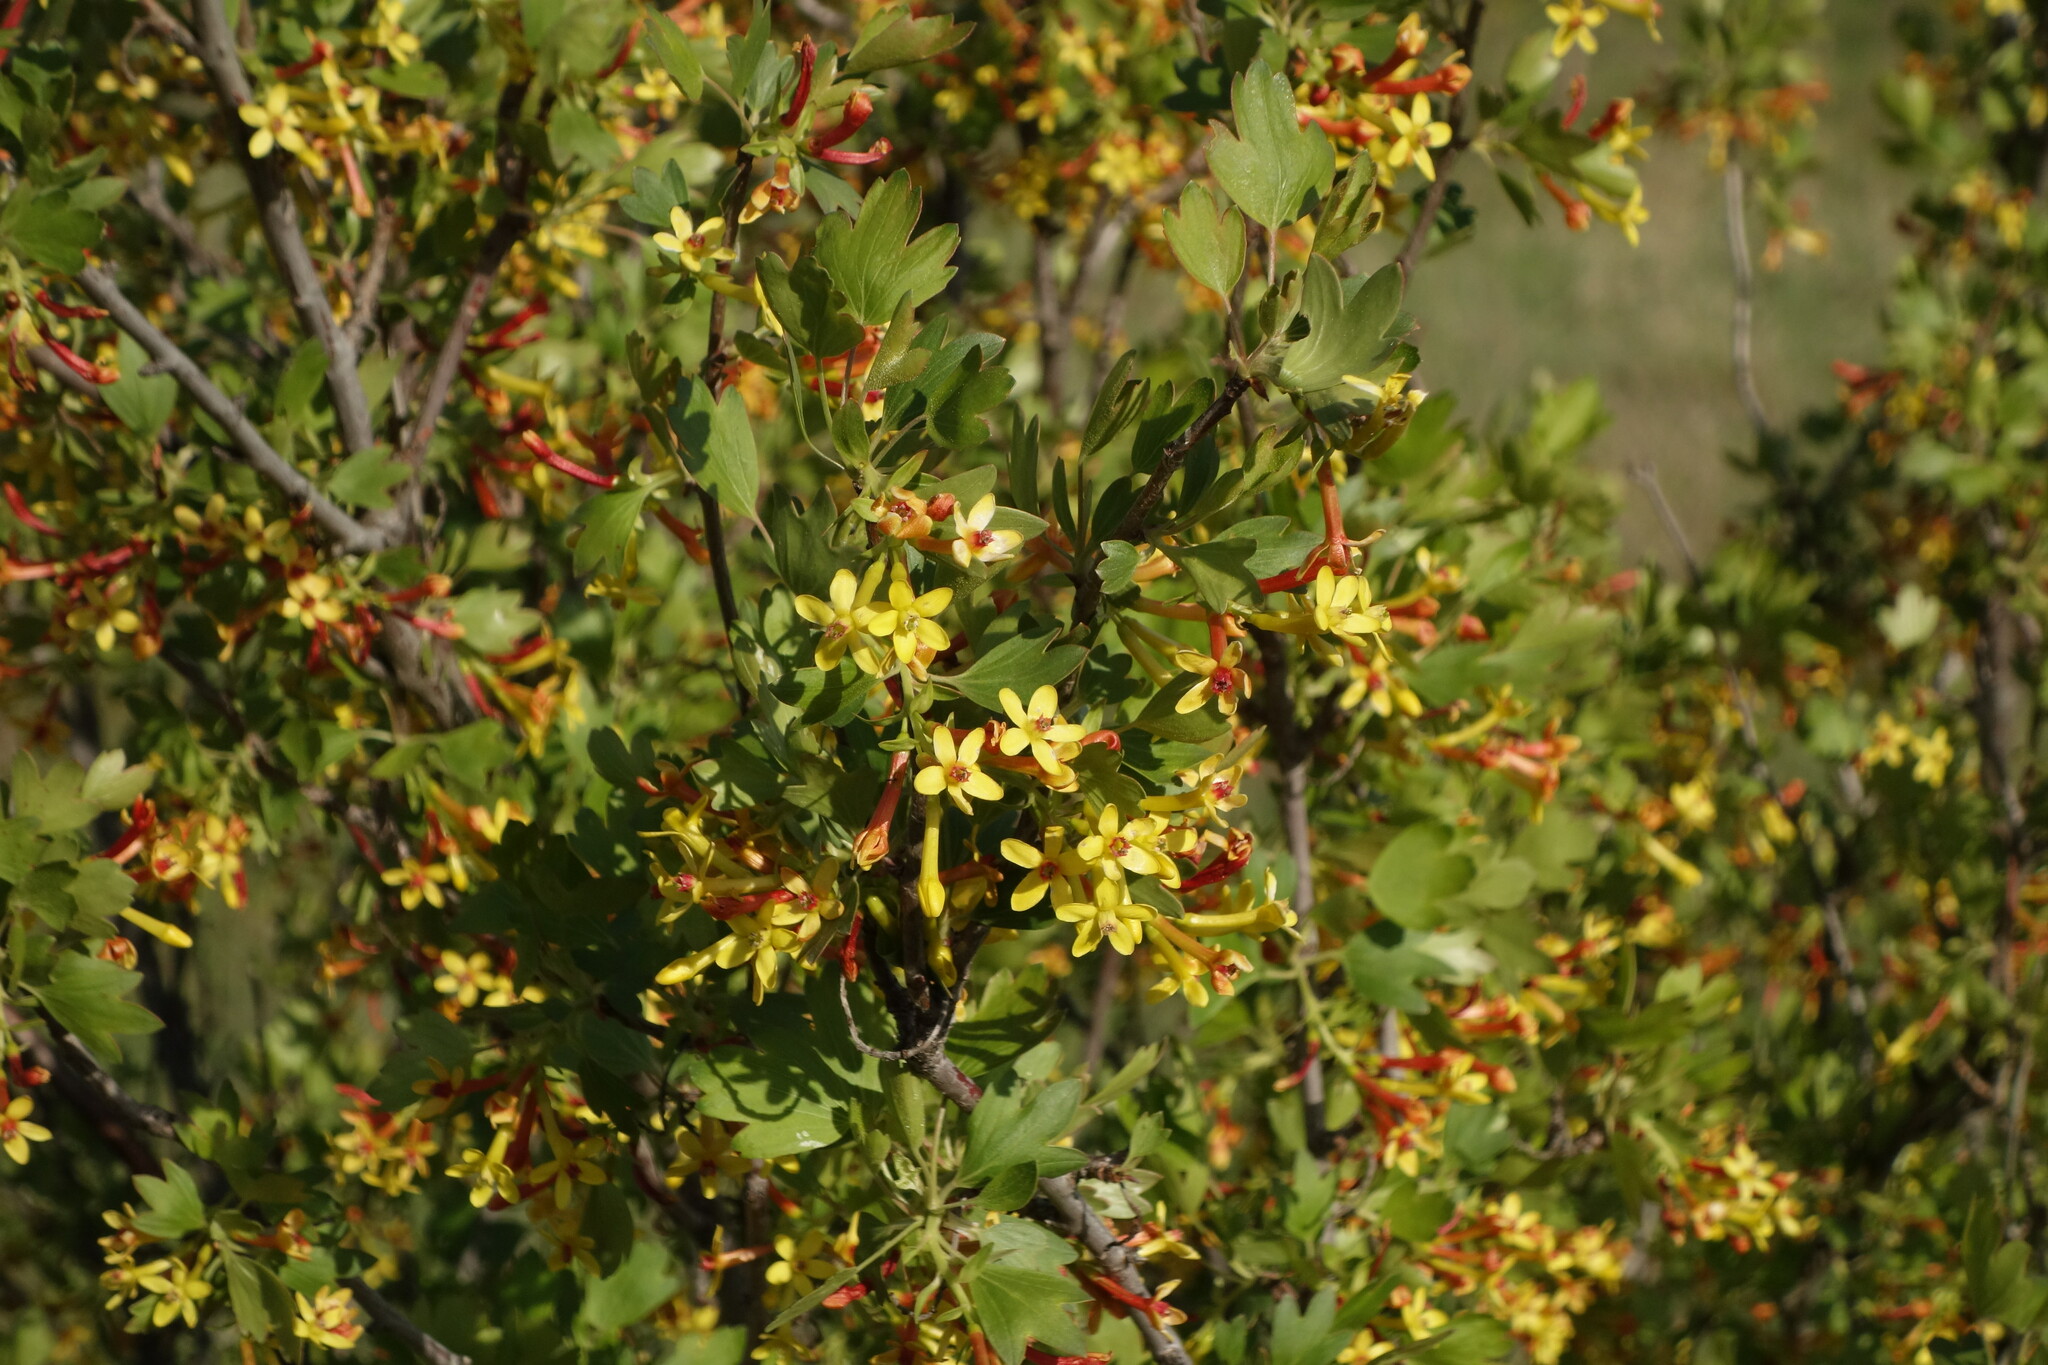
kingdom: Plantae
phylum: Tracheophyta
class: Magnoliopsida
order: Saxifragales
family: Grossulariaceae
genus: Ribes
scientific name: Ribes aureum
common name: Golden currant
